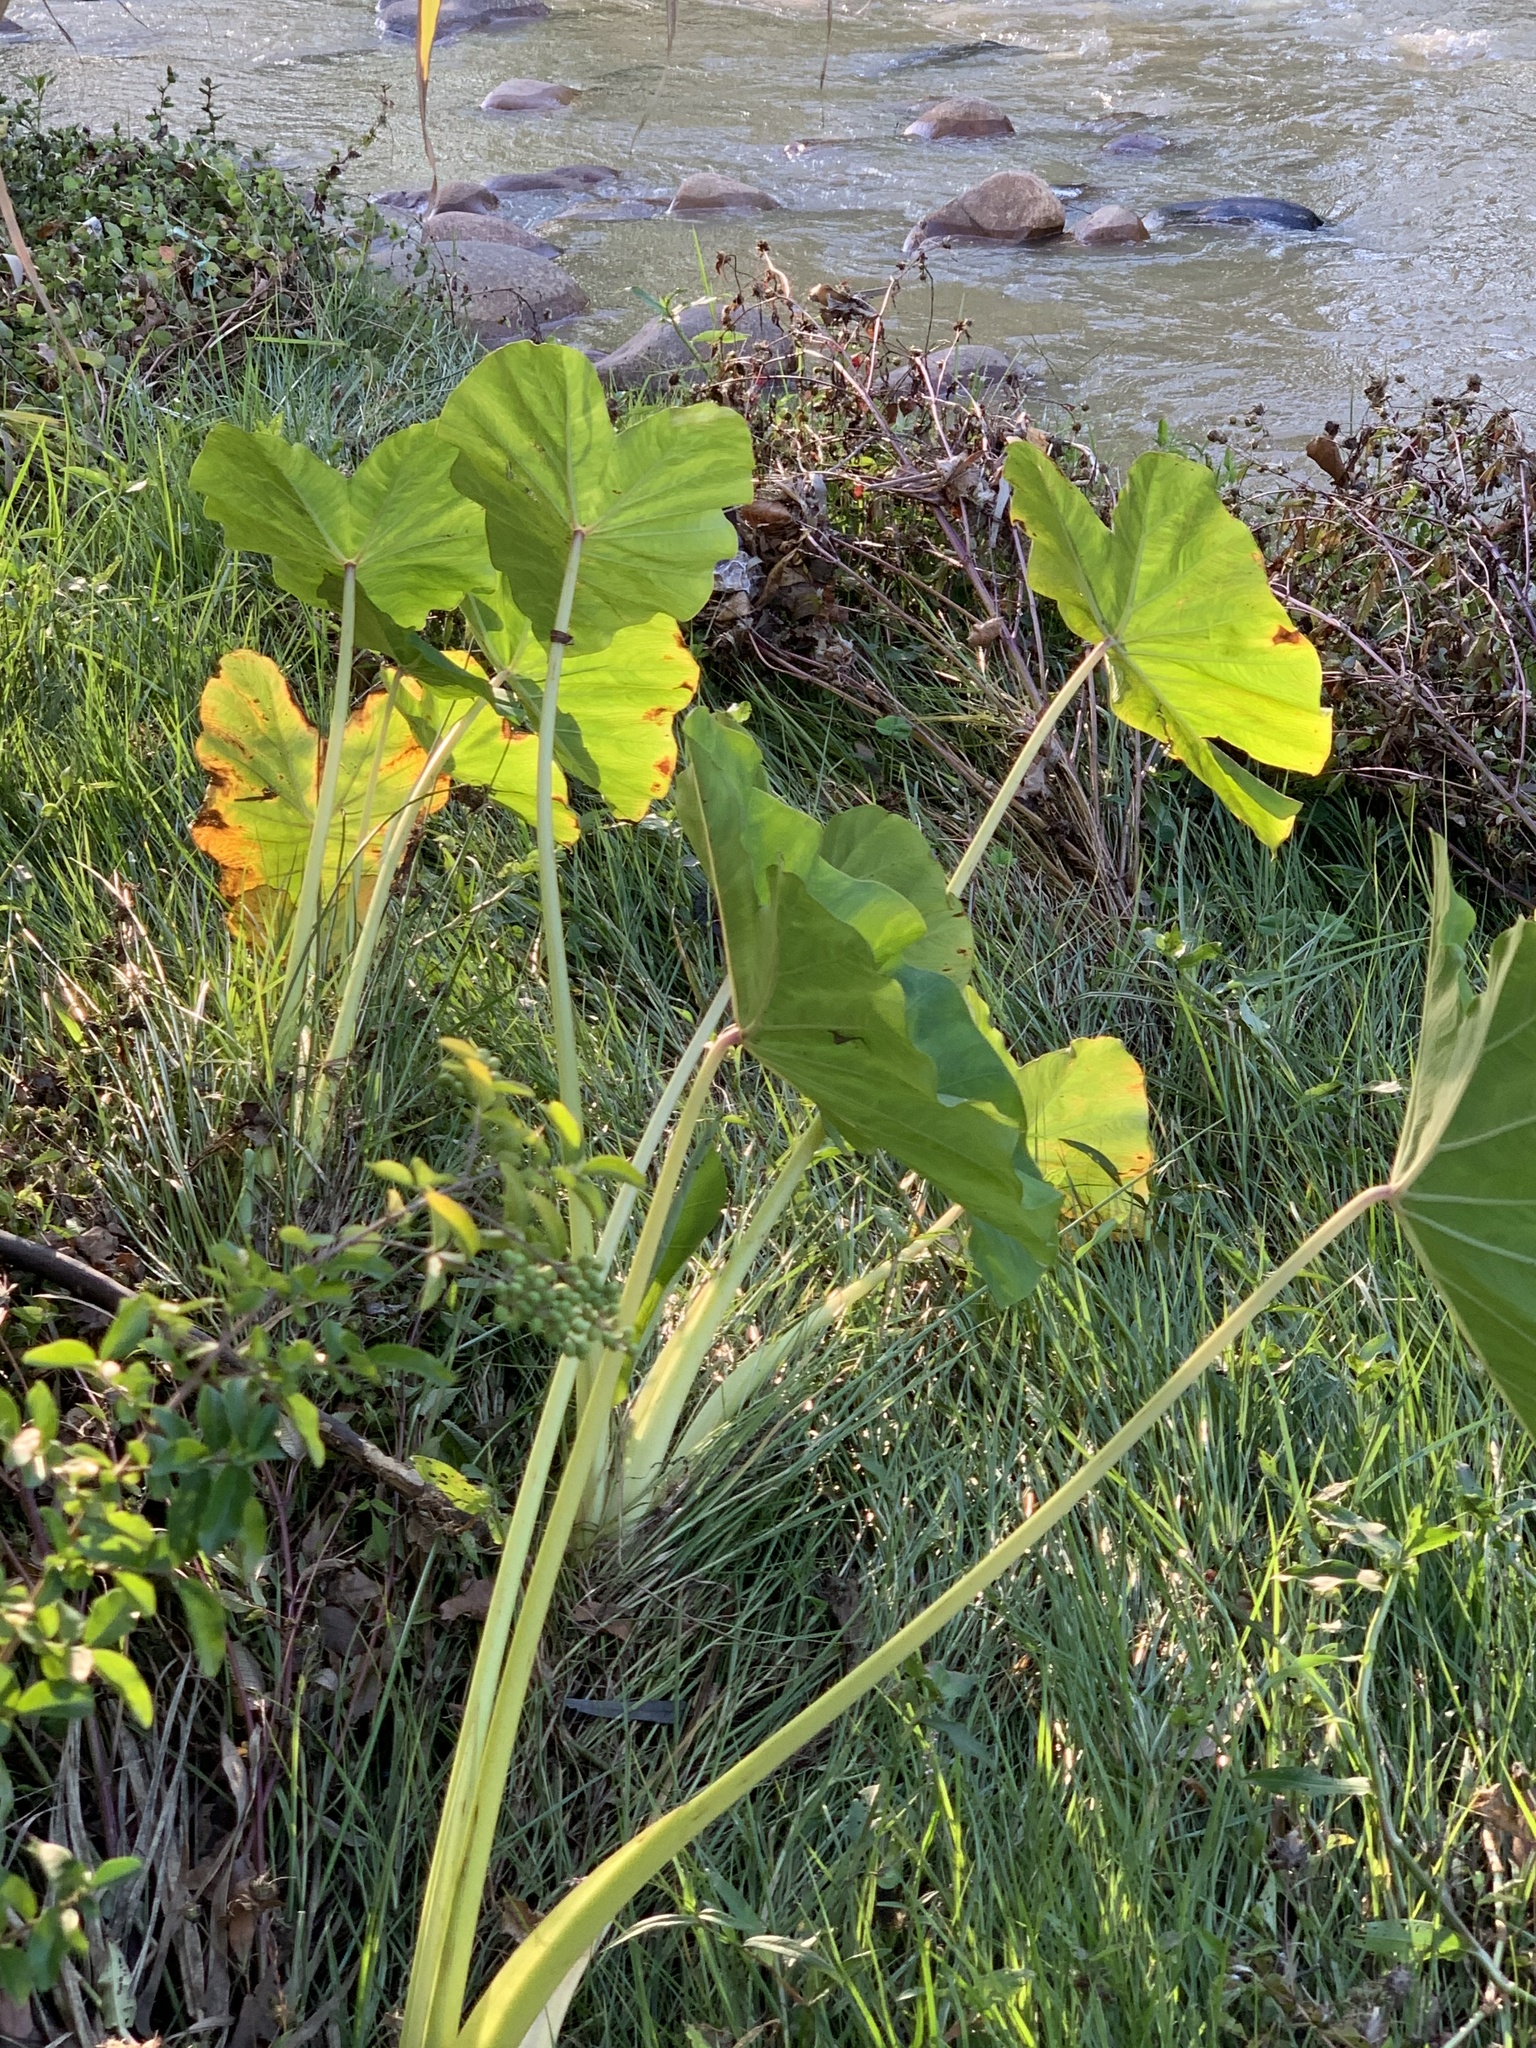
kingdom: Plantae
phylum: Tracheophyta
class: Liliopsida
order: Alismatales
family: Araceae
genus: Colocasia
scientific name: Colocasia esculenta
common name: Taro
